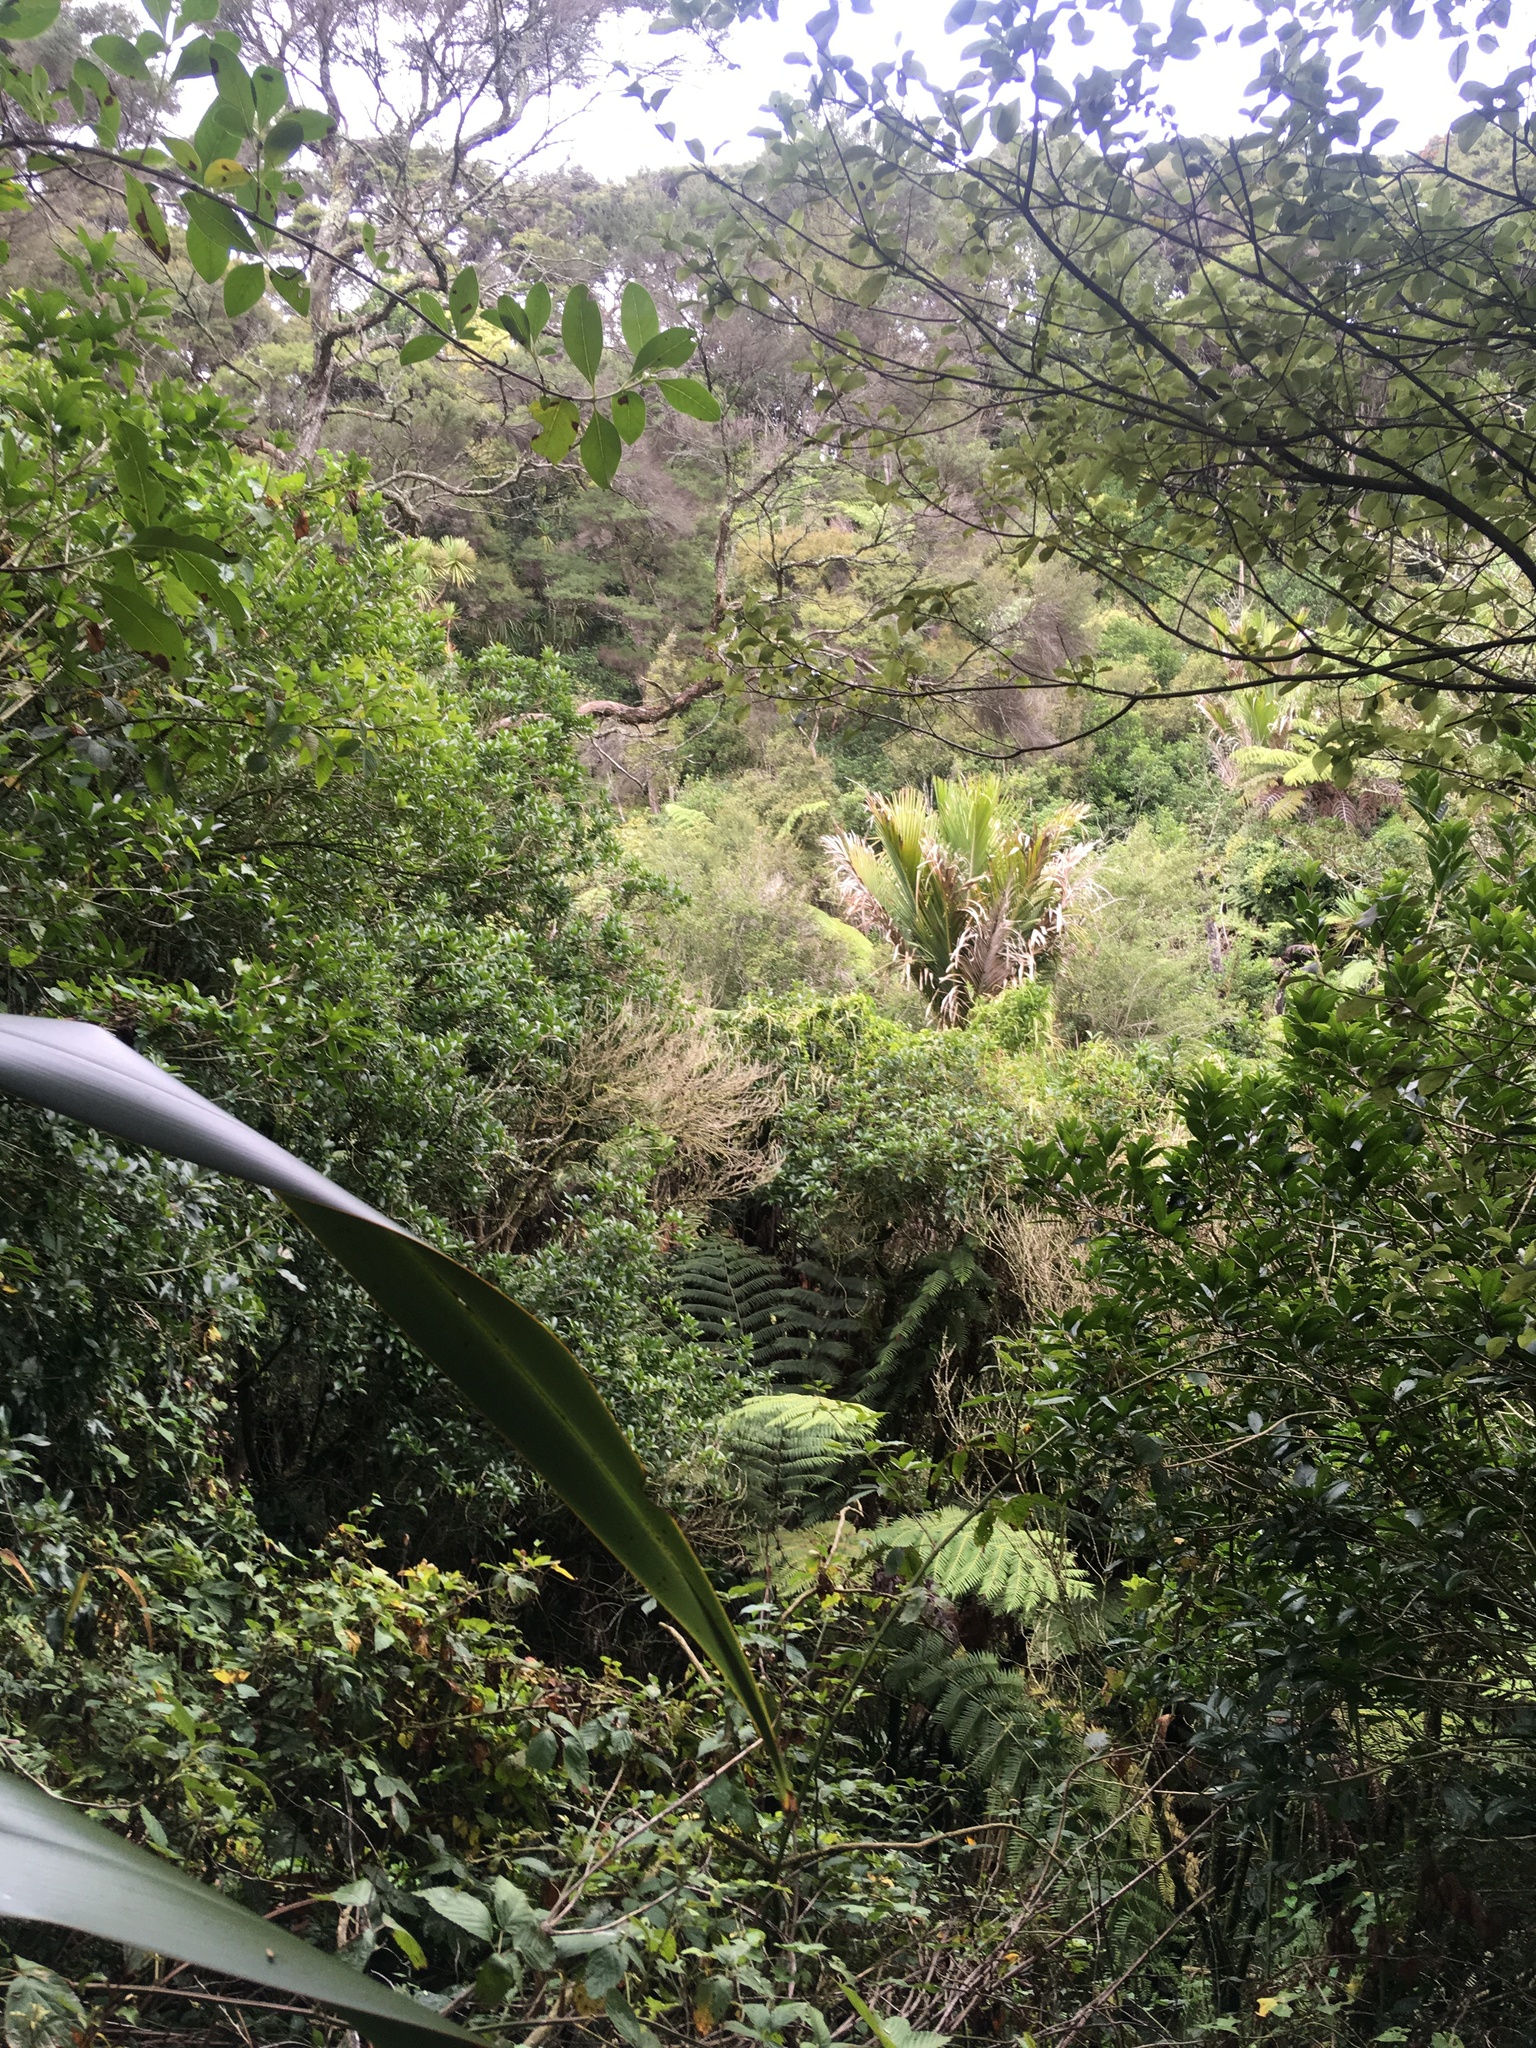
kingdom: Plantae
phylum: Tracheophyta
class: Liliopsida
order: Arecales
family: Arecaceae
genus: Rhopalostylis
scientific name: Rhopalostylis sapida
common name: Feather-duster palm
